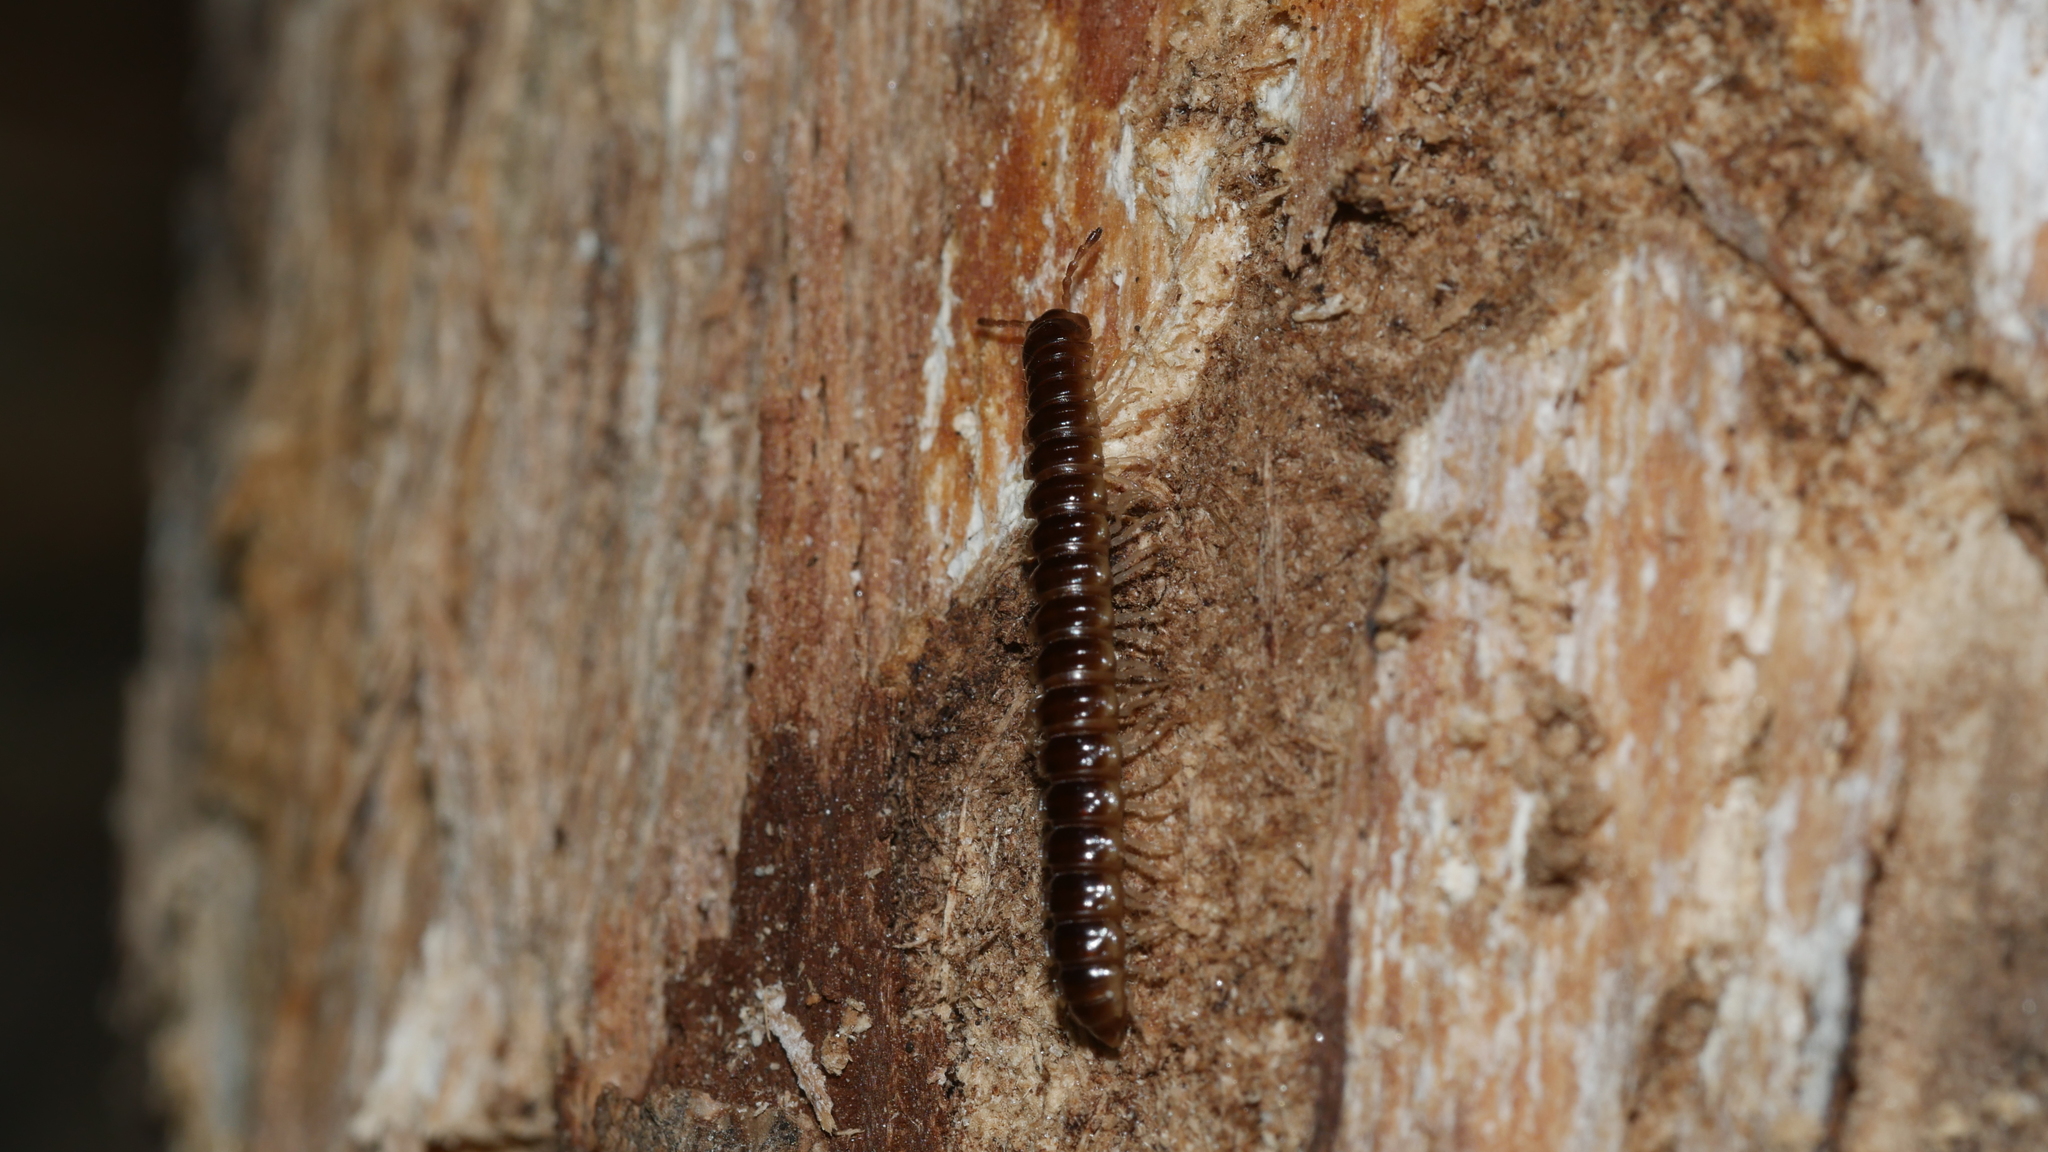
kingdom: Animalia
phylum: Arthropoda
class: Diplopoda
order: Polydesmida
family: Paradoxosomatidae
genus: Oxidus
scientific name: Oxidus gracilis
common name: Greenhouse millipede
